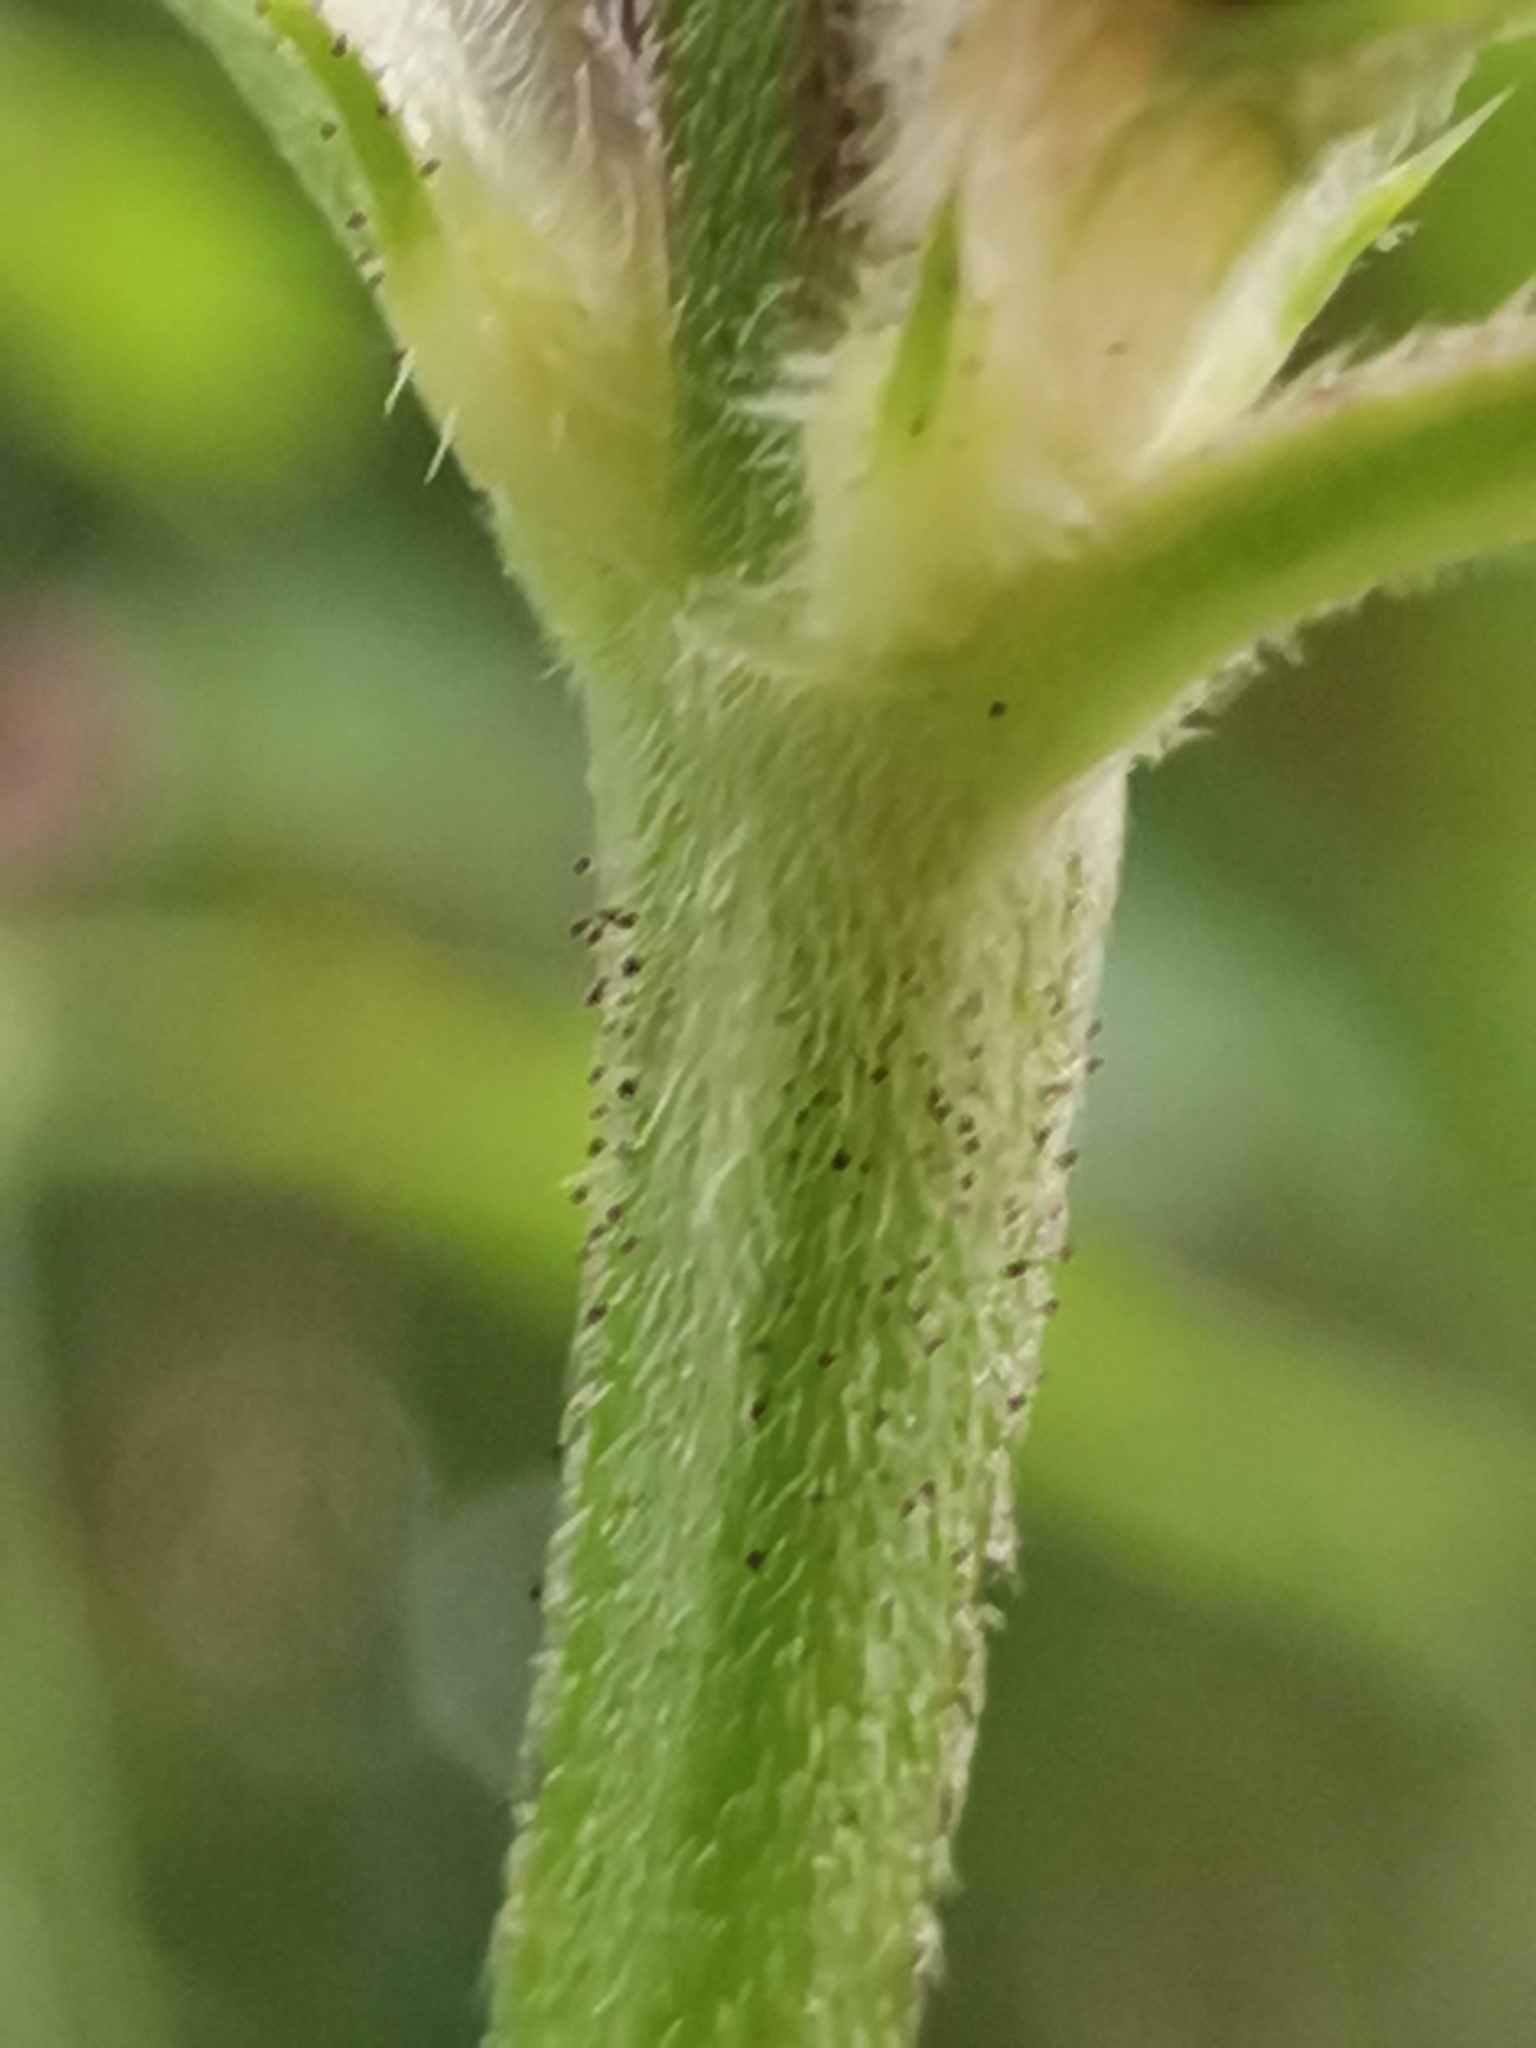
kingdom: Plantae
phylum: Tracheophyta
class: Magnoliopsida
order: Lamiales
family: Lamiaceae
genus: Galeopsis
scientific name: Galeopsis pubescens
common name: Downy hemp-nettle
